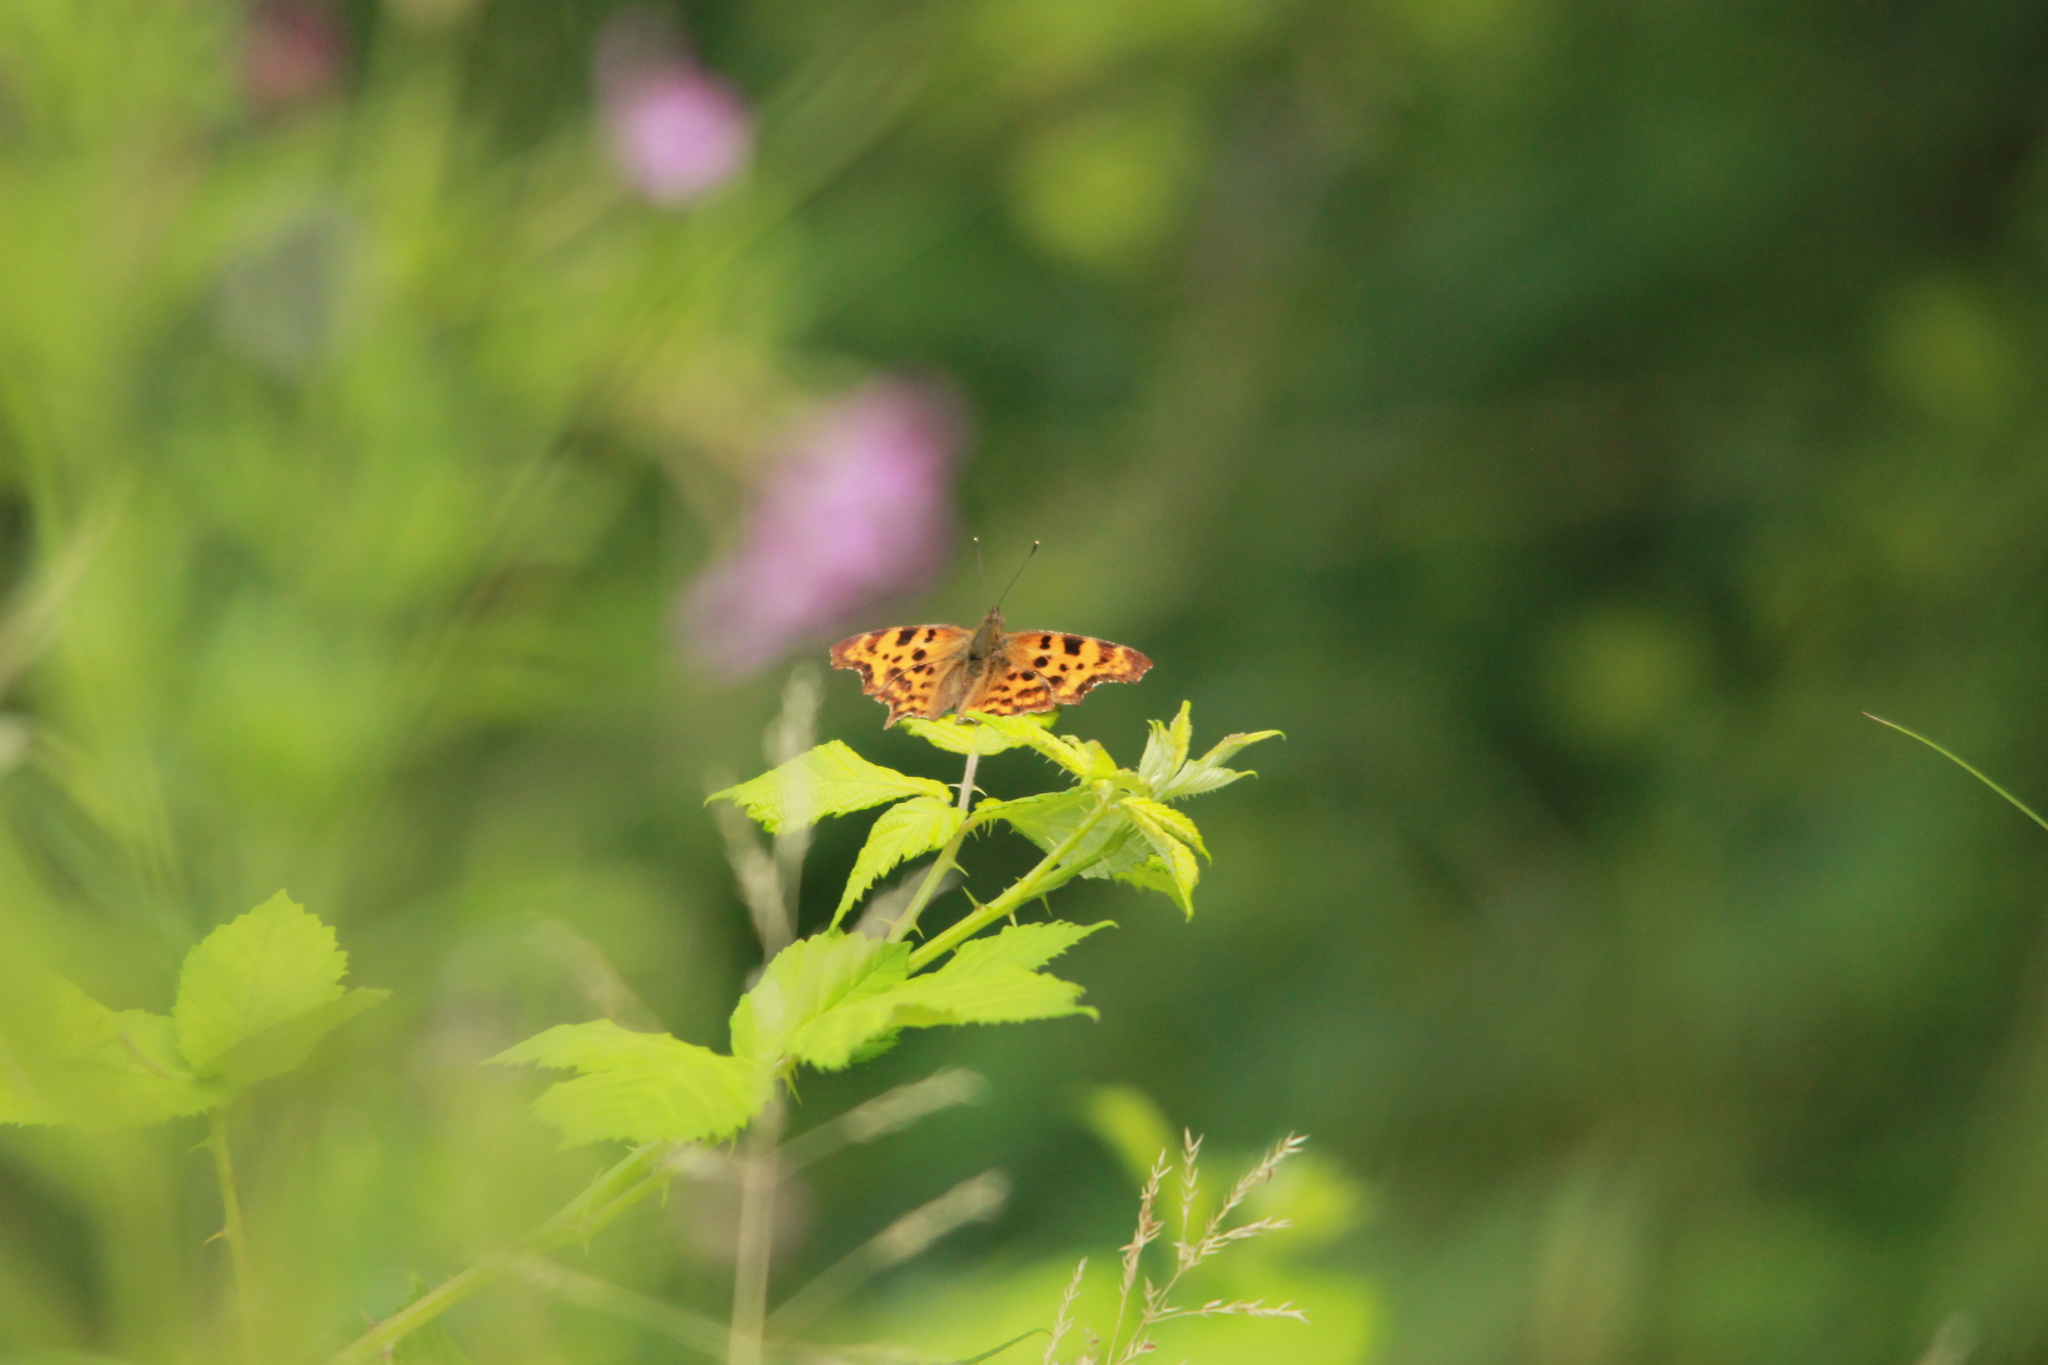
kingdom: Animalia
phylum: Arthropoda
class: Insecta
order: Lepidoptera
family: Nymphalidae
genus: Polygonia
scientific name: Polygonia c-album
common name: Comma
